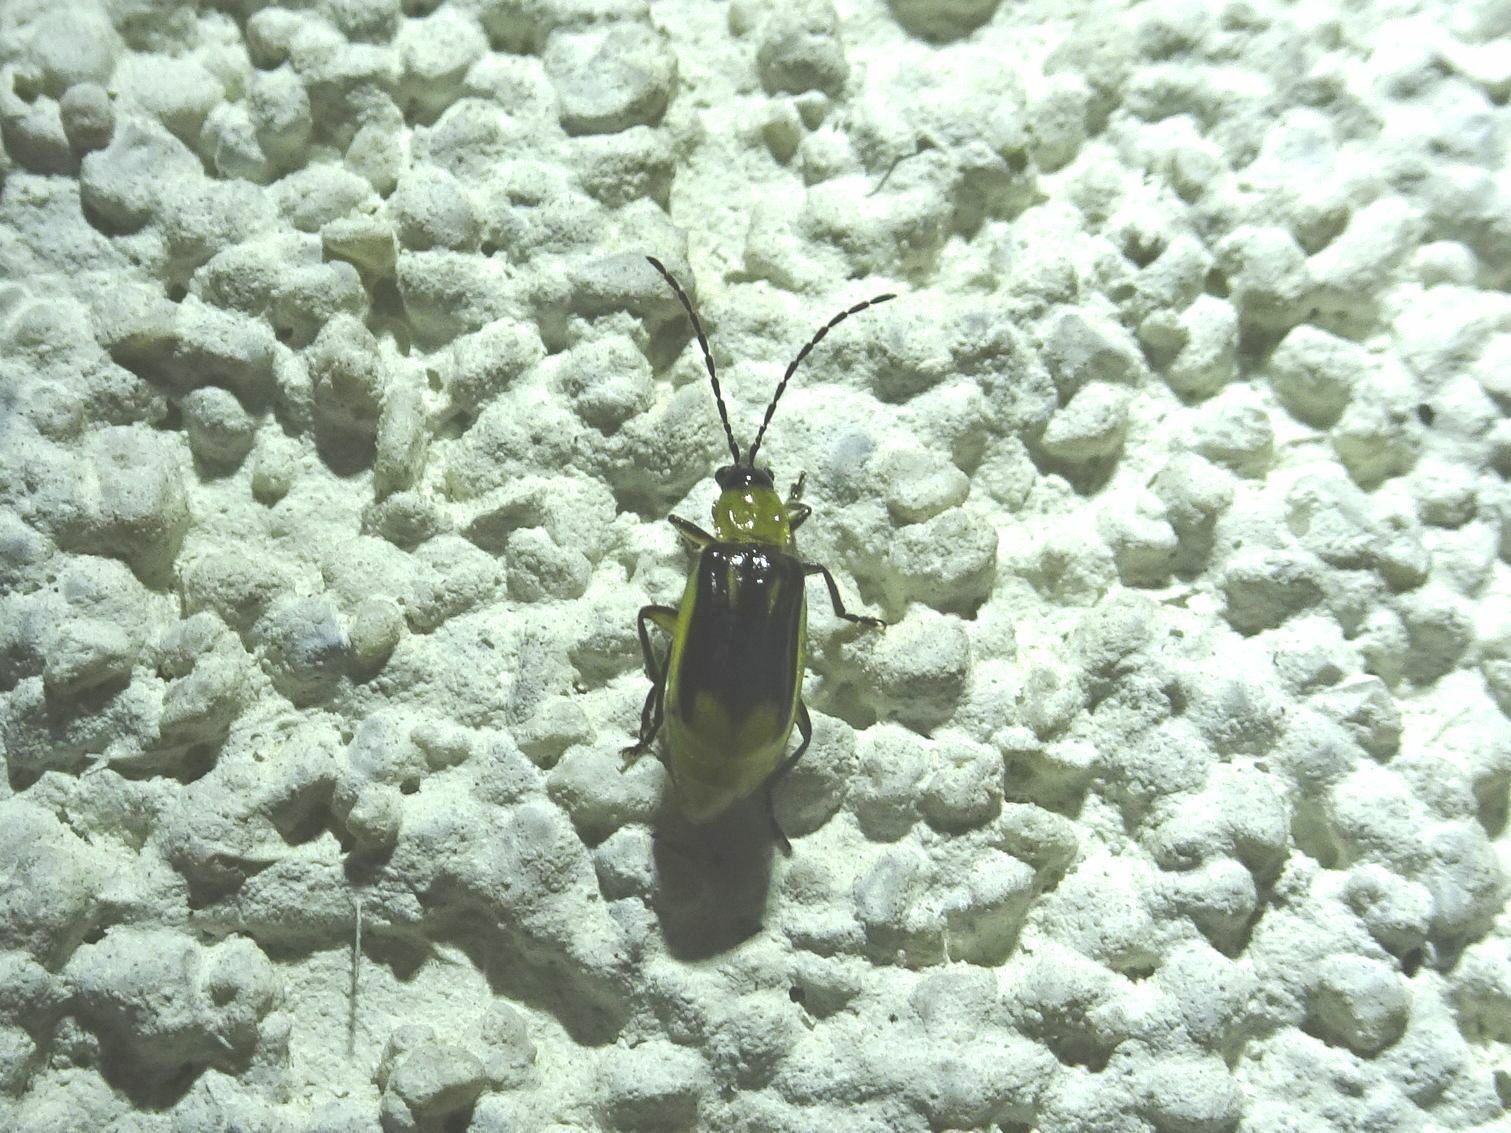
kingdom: Animalia
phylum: Arthropoda
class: Insecta
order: Coleoptera
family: Chrysomelidae
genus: Diabrotica
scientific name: Diabrotica virgifera
